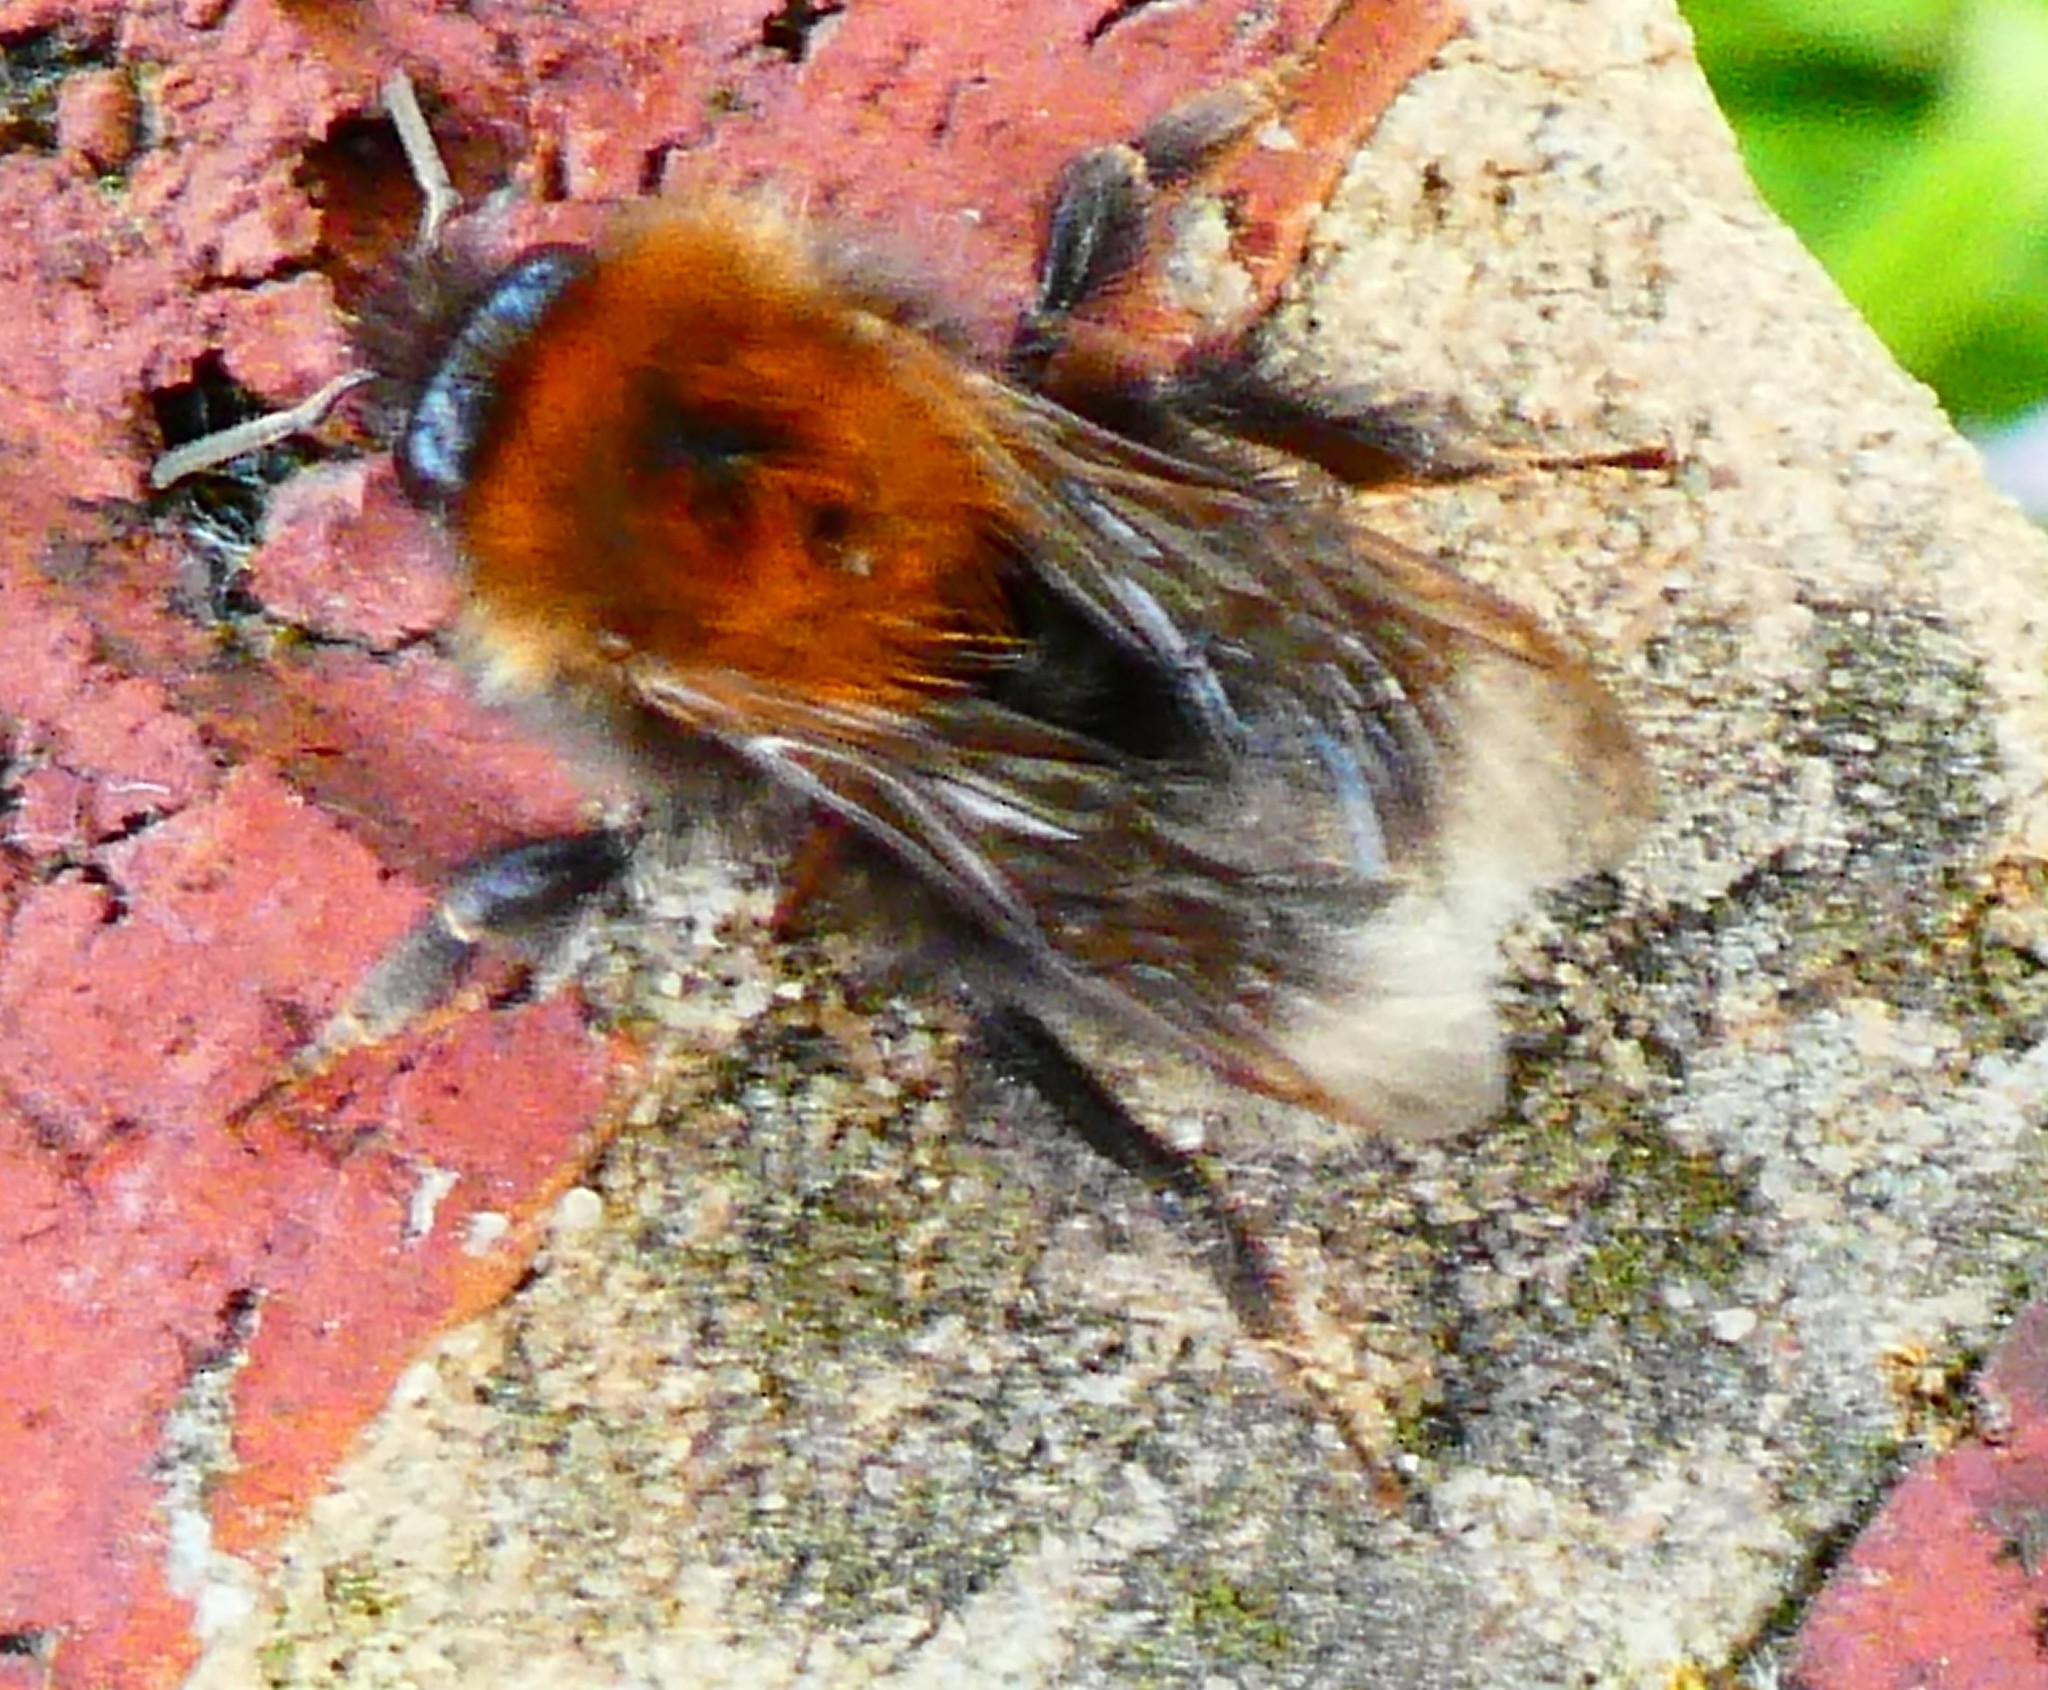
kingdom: Animalia
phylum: Arthropoda
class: Insecta
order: Hymenoptera
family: Apidae
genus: Bombus
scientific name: Bombus hypnorum
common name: New garden bumblebee
